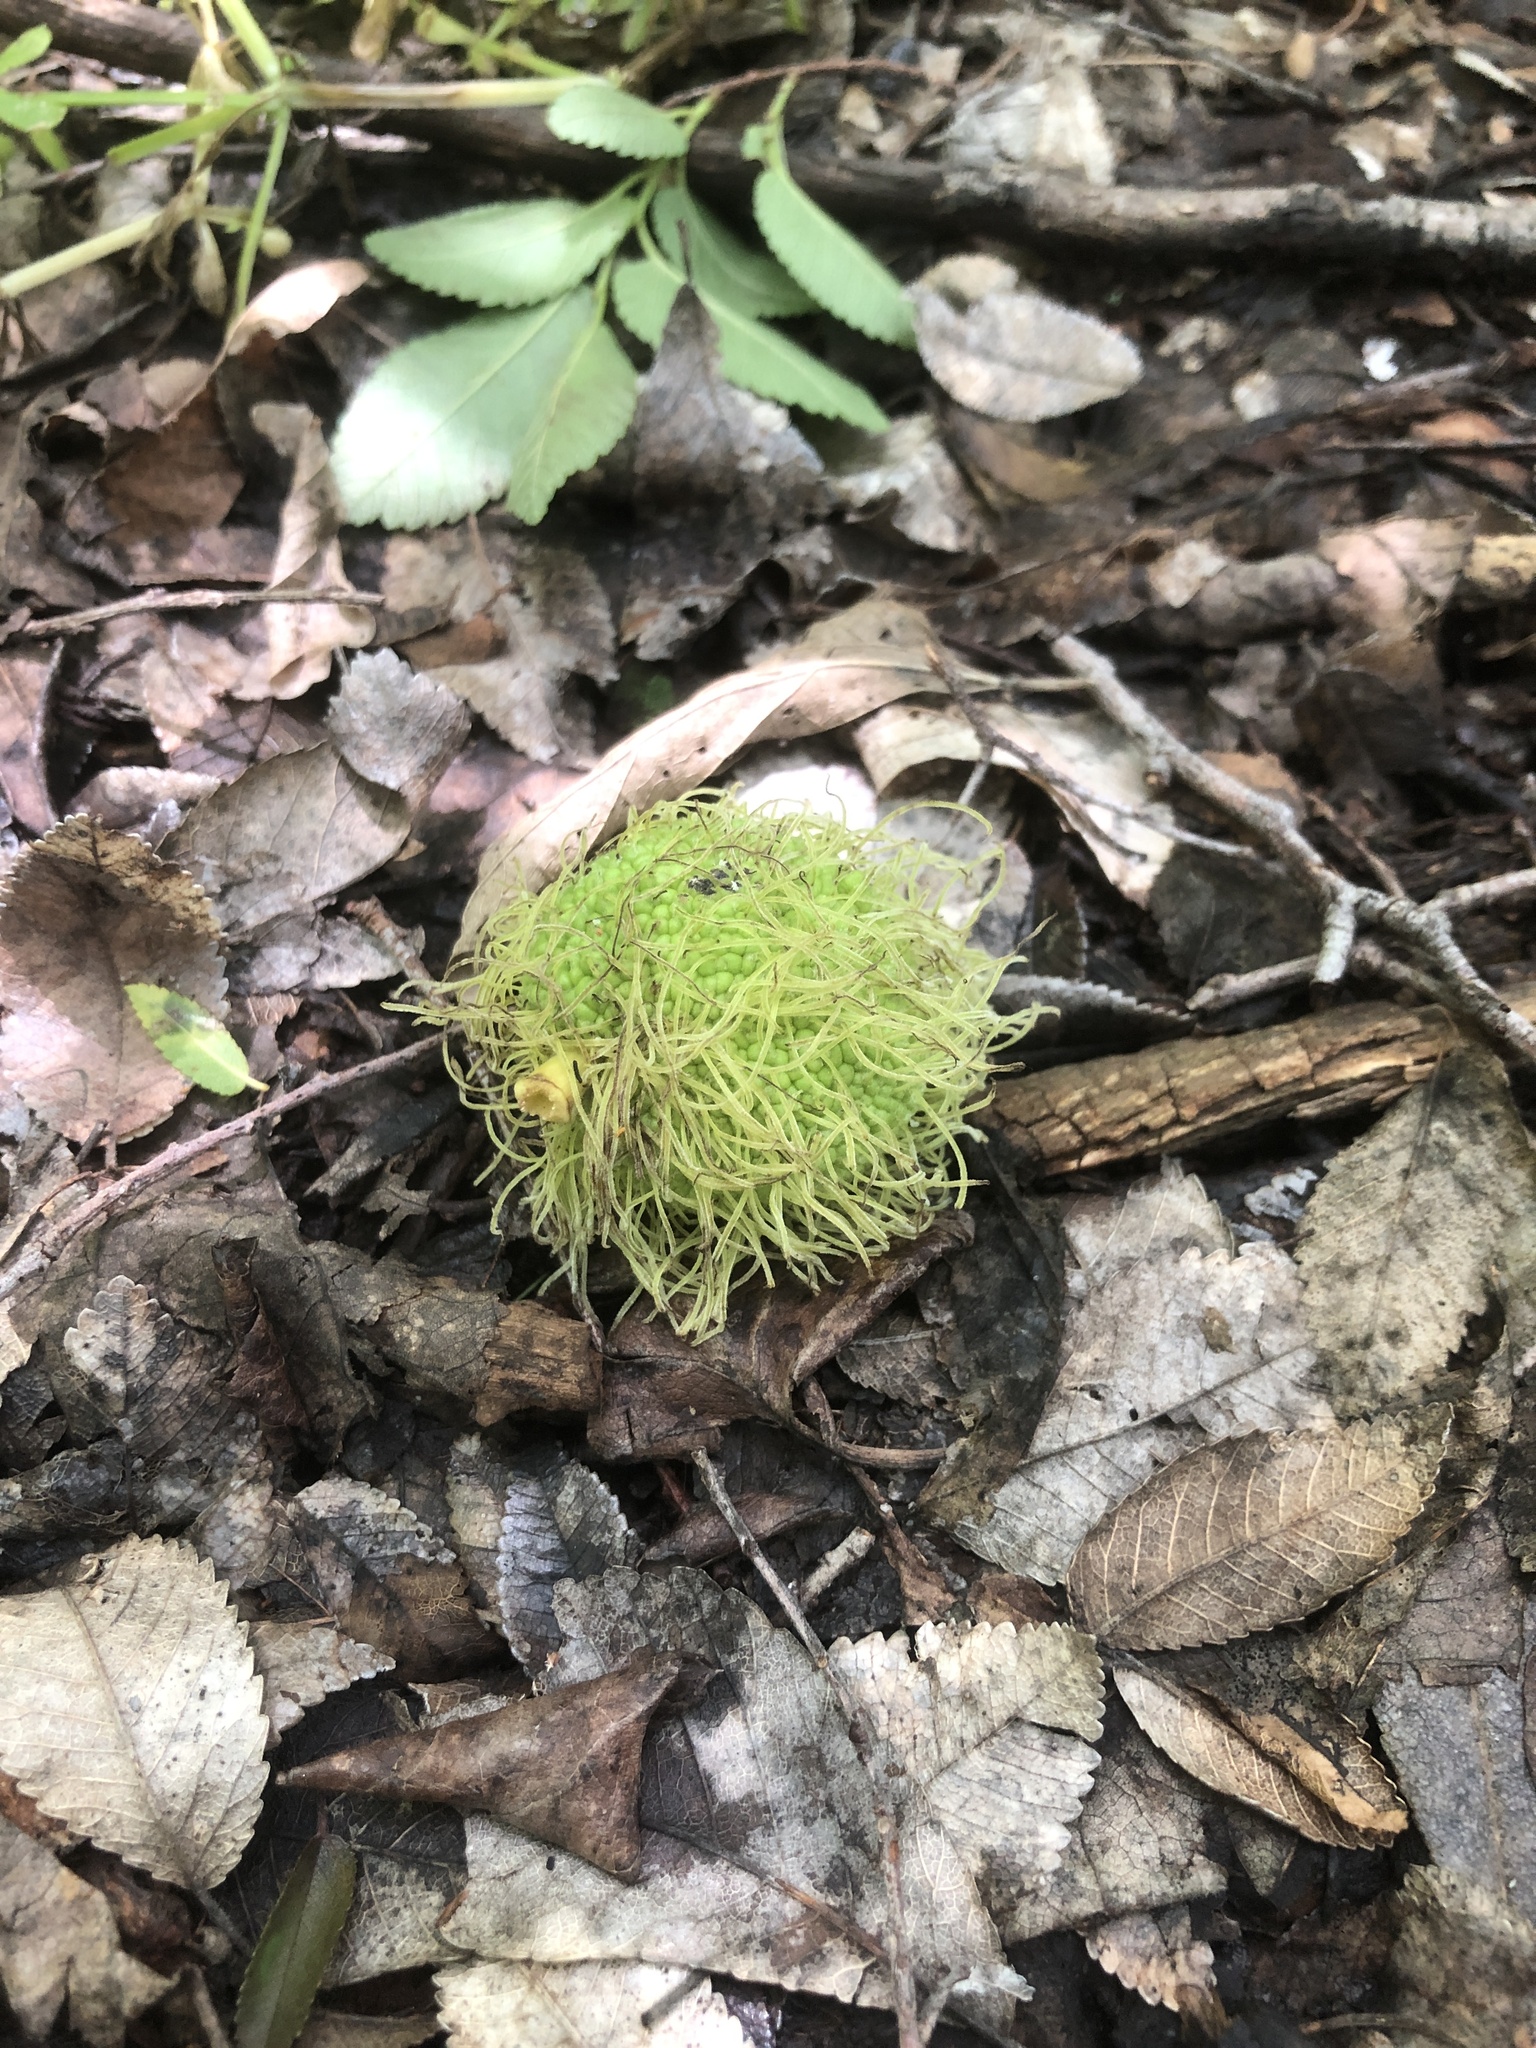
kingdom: Plantae
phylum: Tracheophyta
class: Magnoliopsida
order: Rosales
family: Moraceae
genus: Maclura
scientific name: Maclura pomifera
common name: Osage-orange
